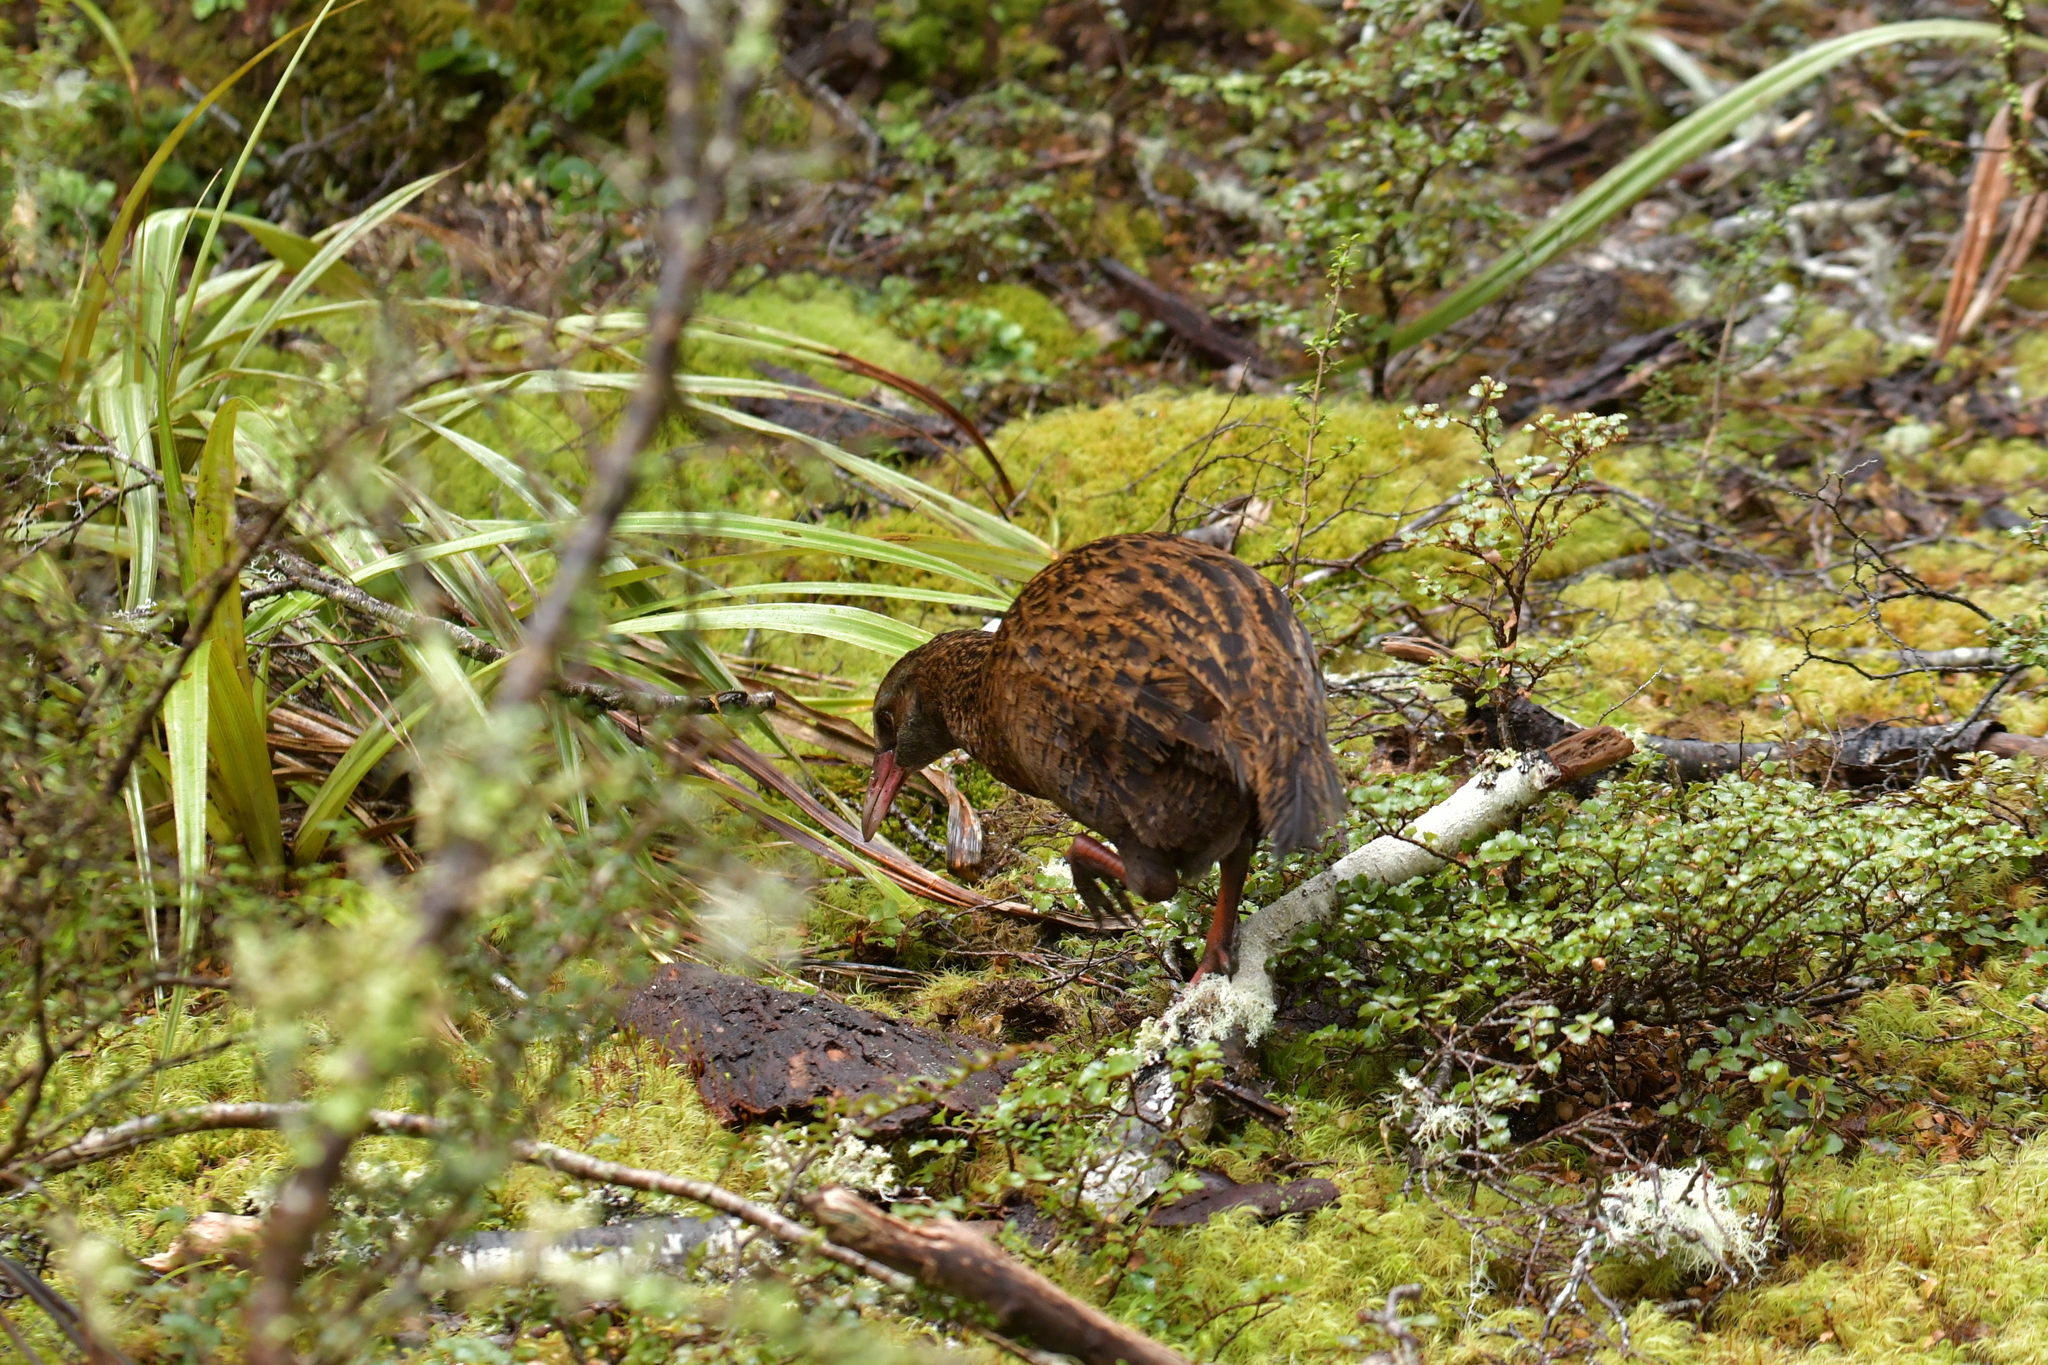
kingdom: Animalia
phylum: Chordata
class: Aves
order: Gruiformes
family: Rallidae
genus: Gallirallus
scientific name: Gallirallus australis
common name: Weka
